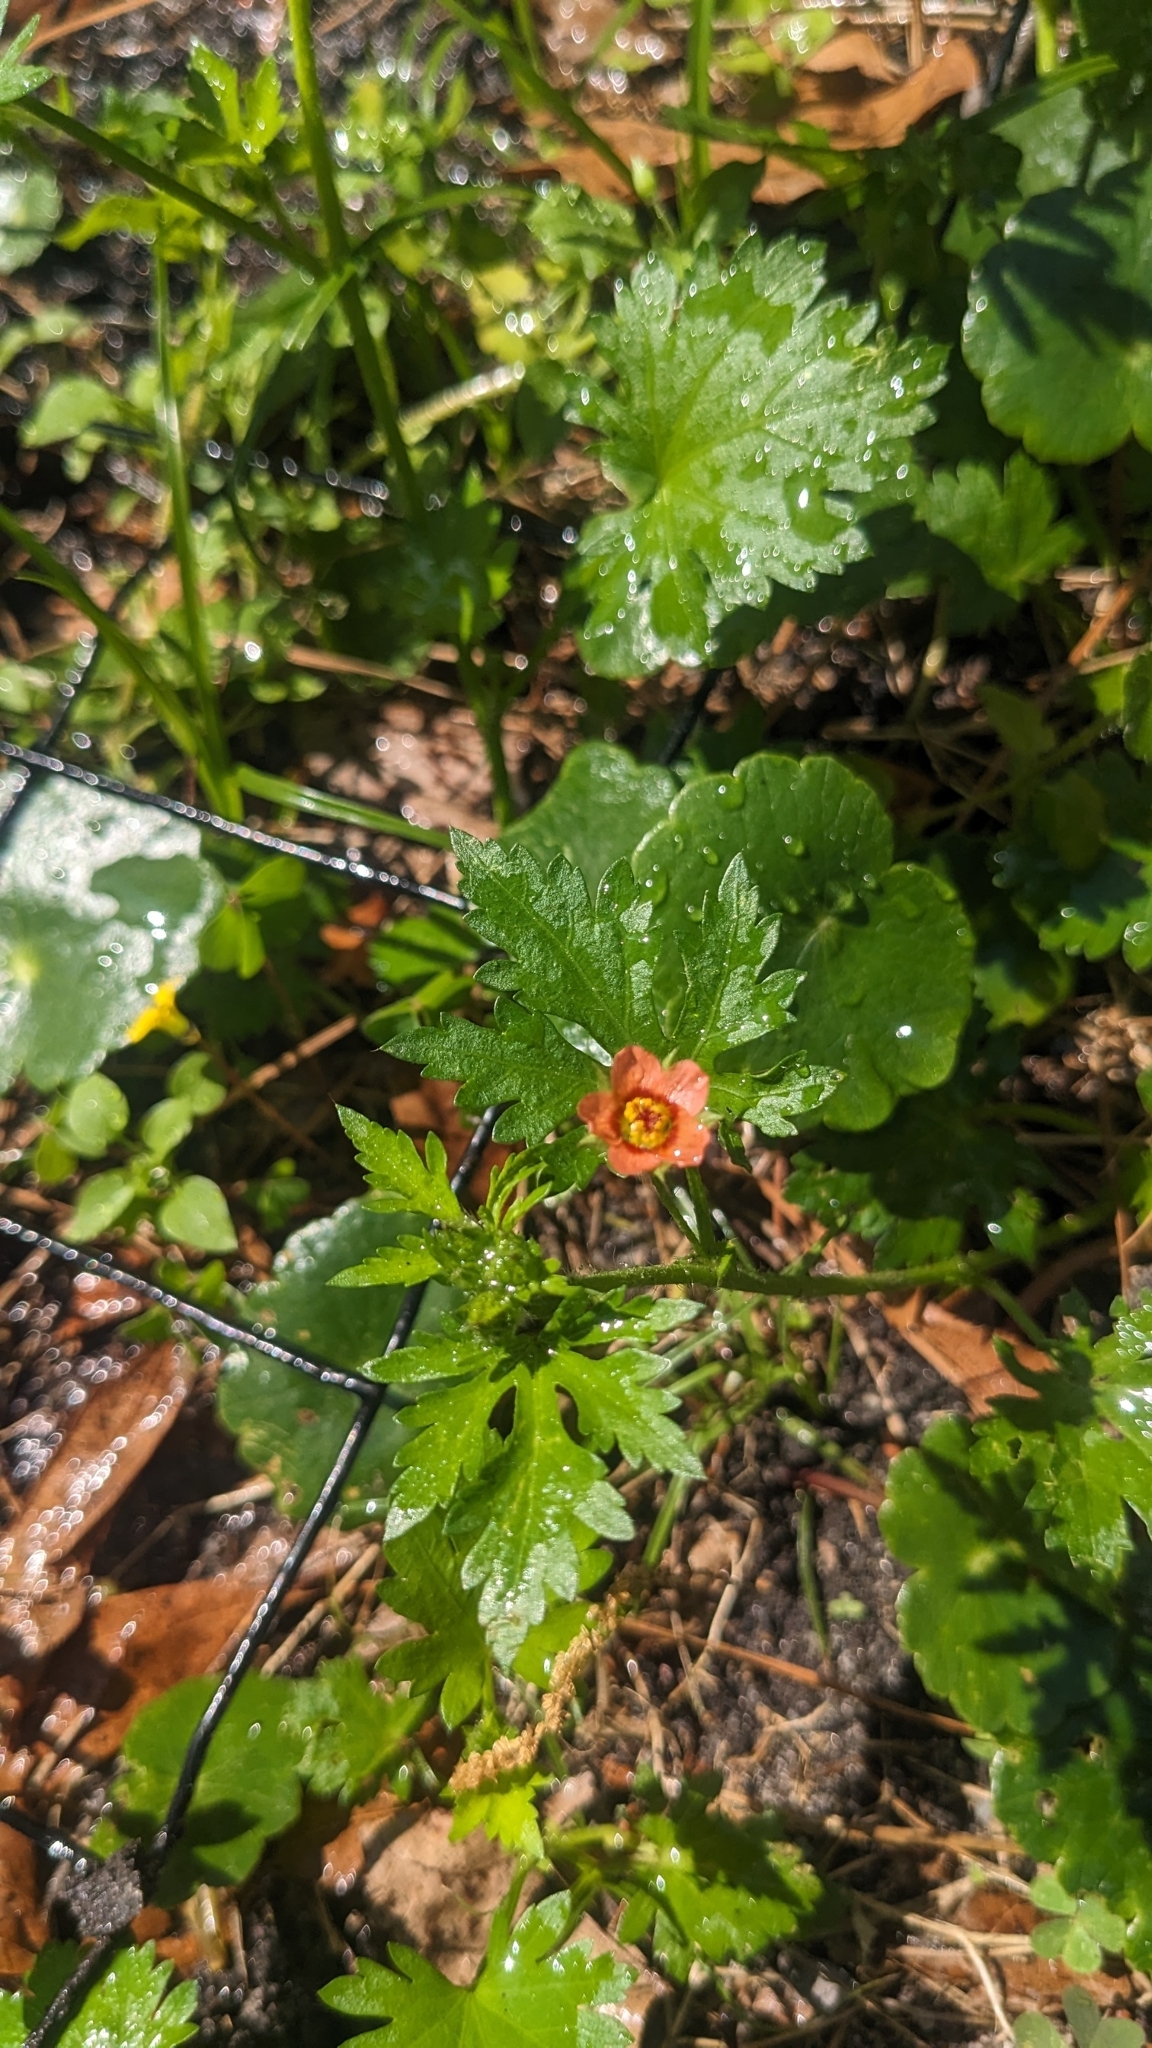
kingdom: Plantae
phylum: Tracheophyta
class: Magnoliopsida
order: Malvales
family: Malvaceae
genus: Modiola
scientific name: Modiola caroliniana
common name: Carolina bristlemallow
